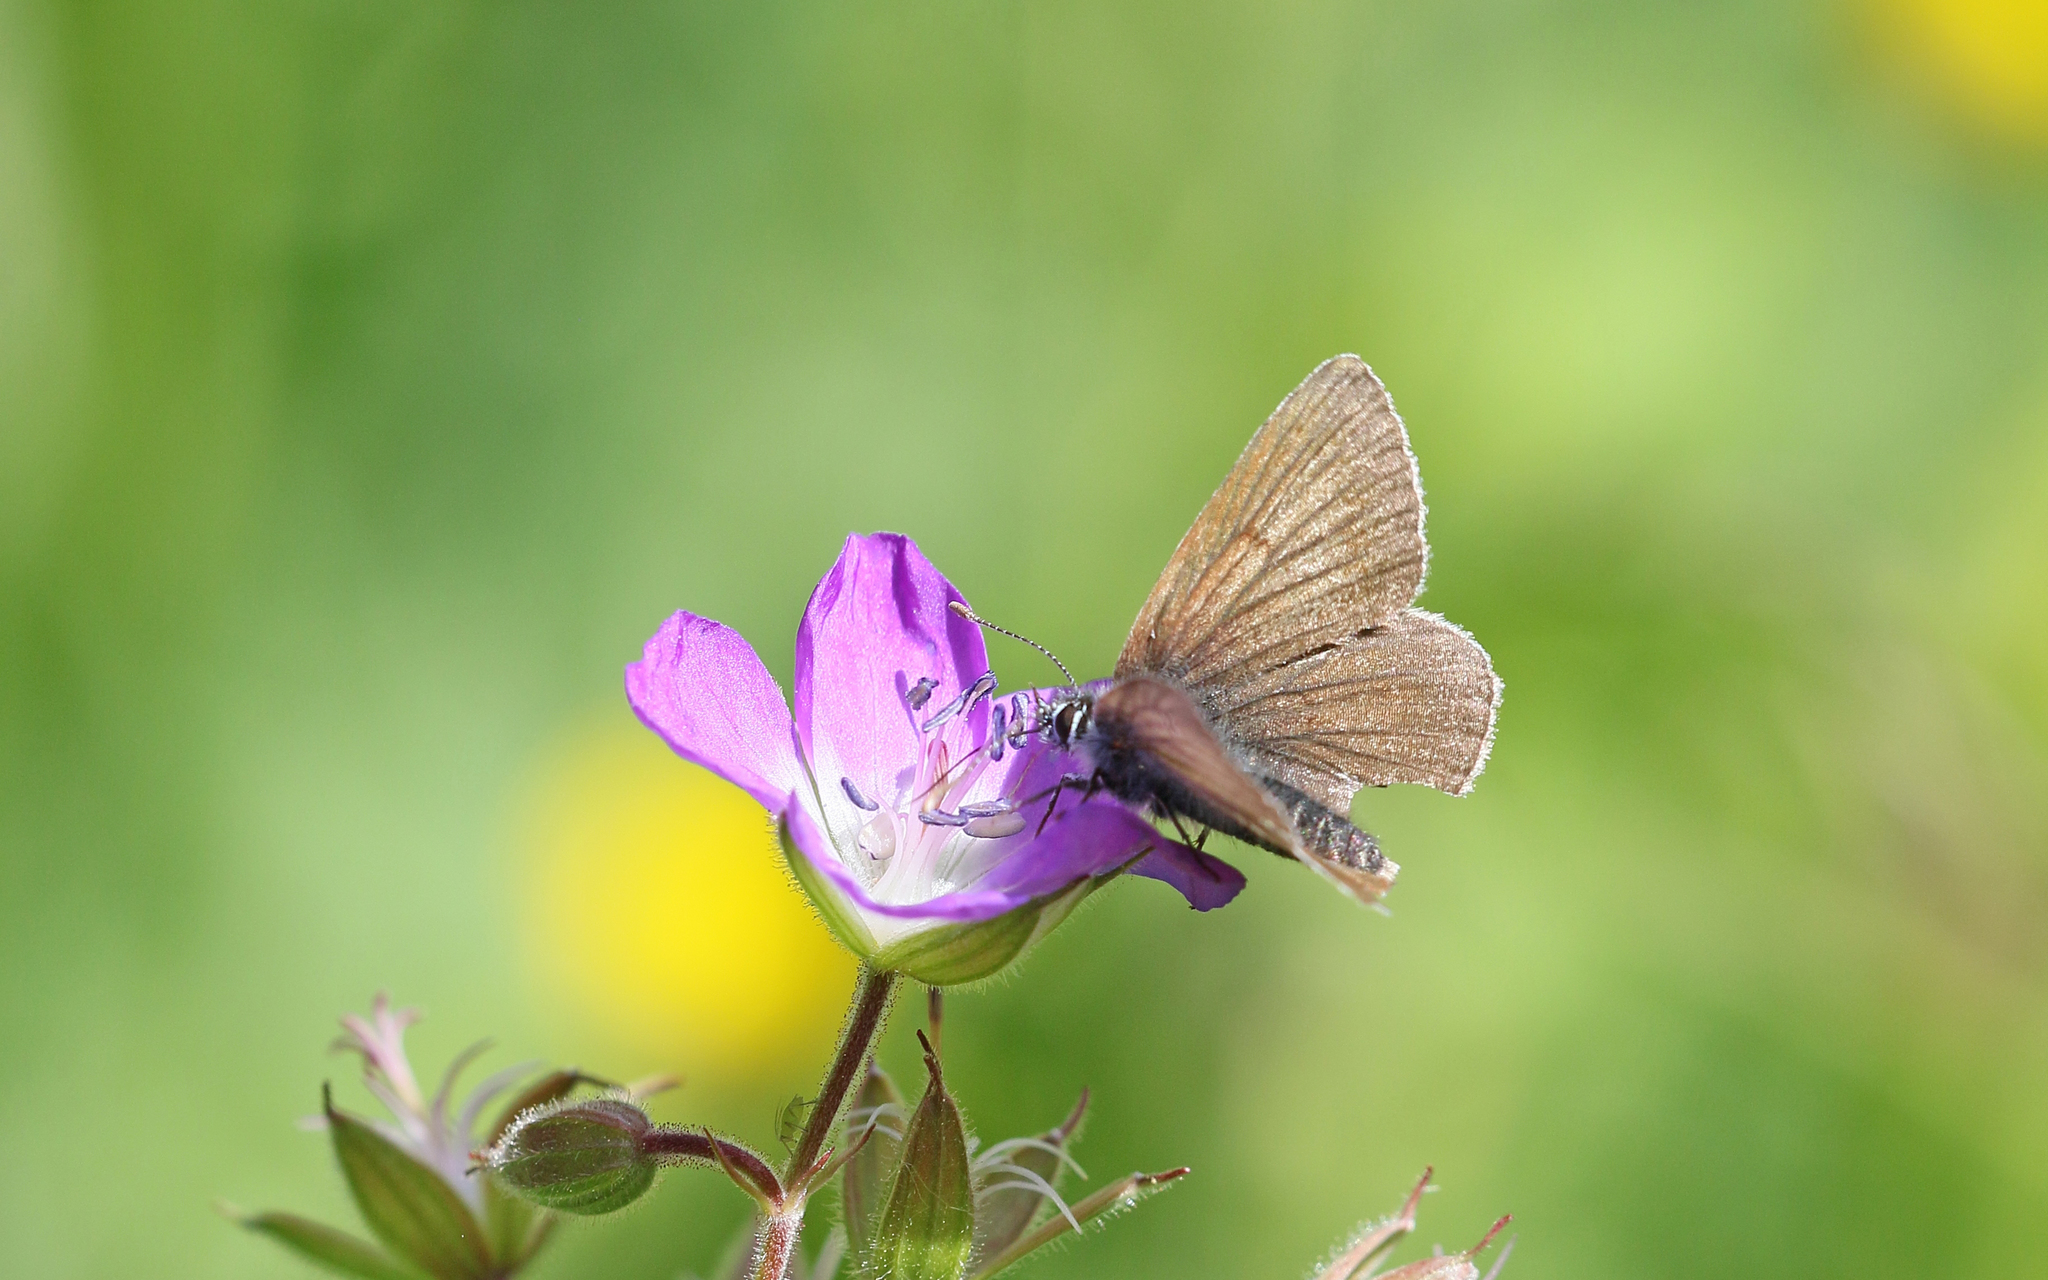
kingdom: Animalia
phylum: Arthropoda
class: Insecta
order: Lepidoptera
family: Lycaenidae
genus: Eumedonia
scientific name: Eumedonia eumedon
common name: Geranium argus
